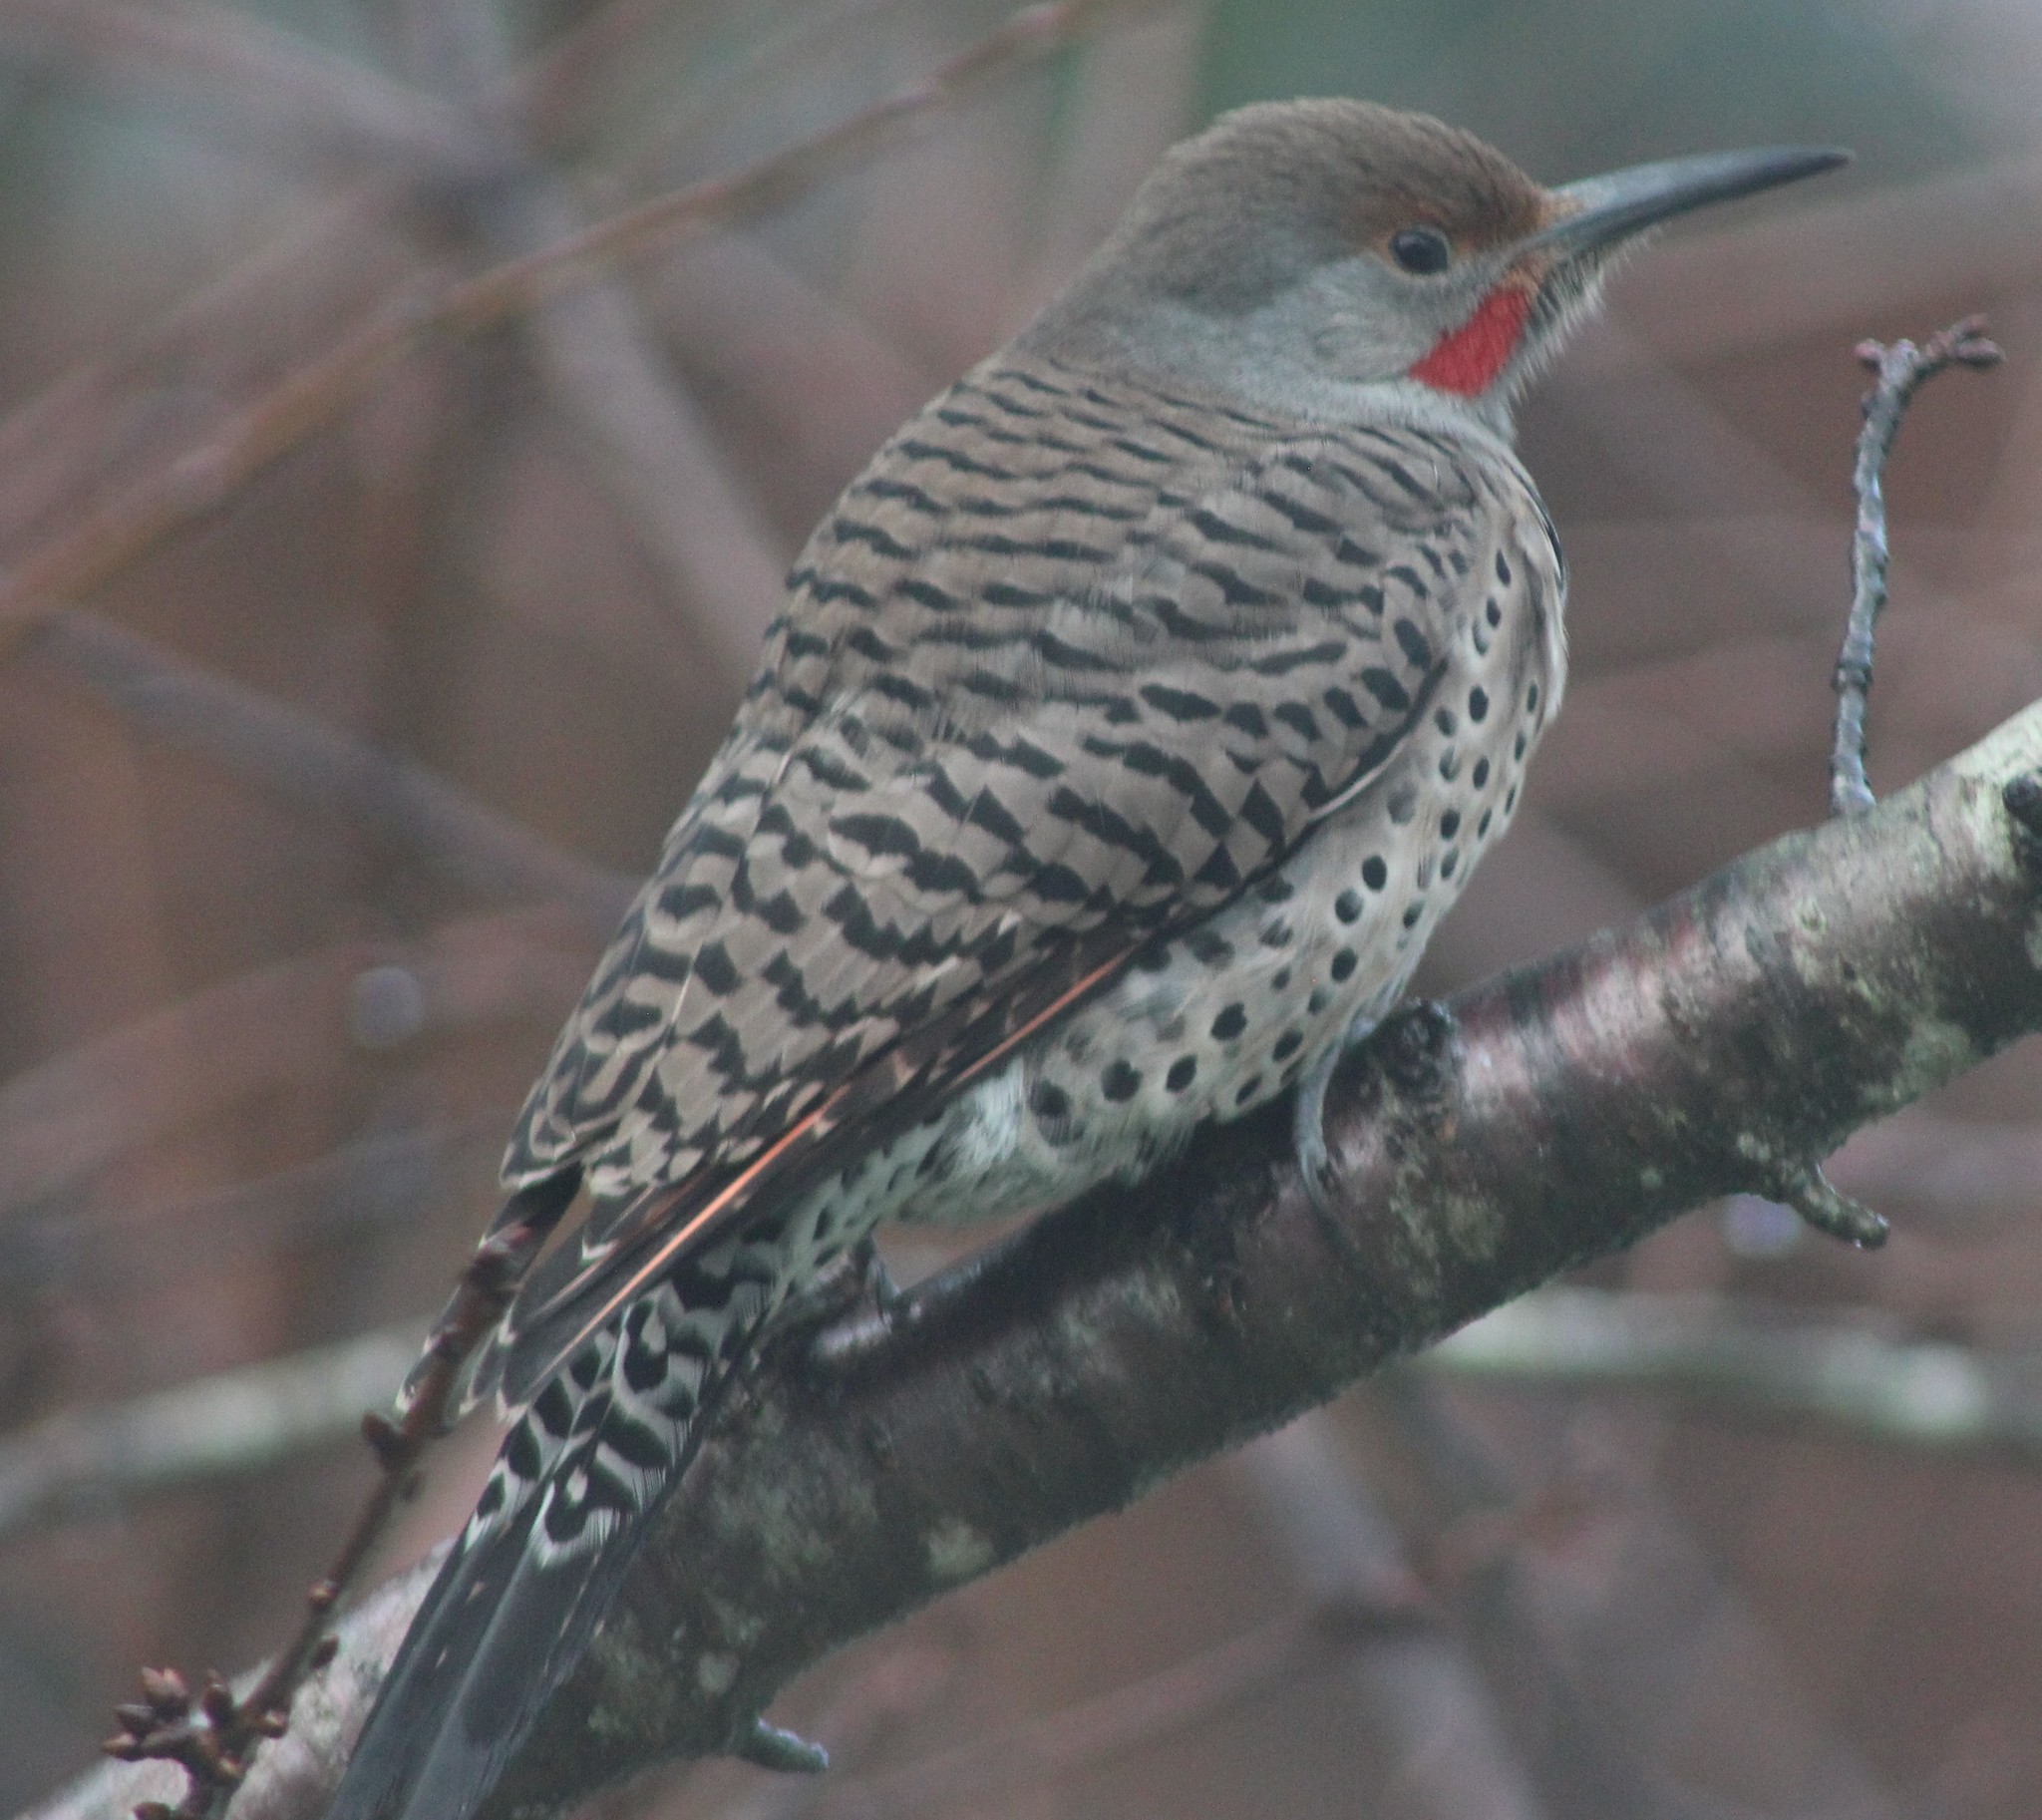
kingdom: Animalia
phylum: Chordata
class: Aves
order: Piciformes
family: Picidae
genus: Colaptes
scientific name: Colaptes auratus
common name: Northern flicker
